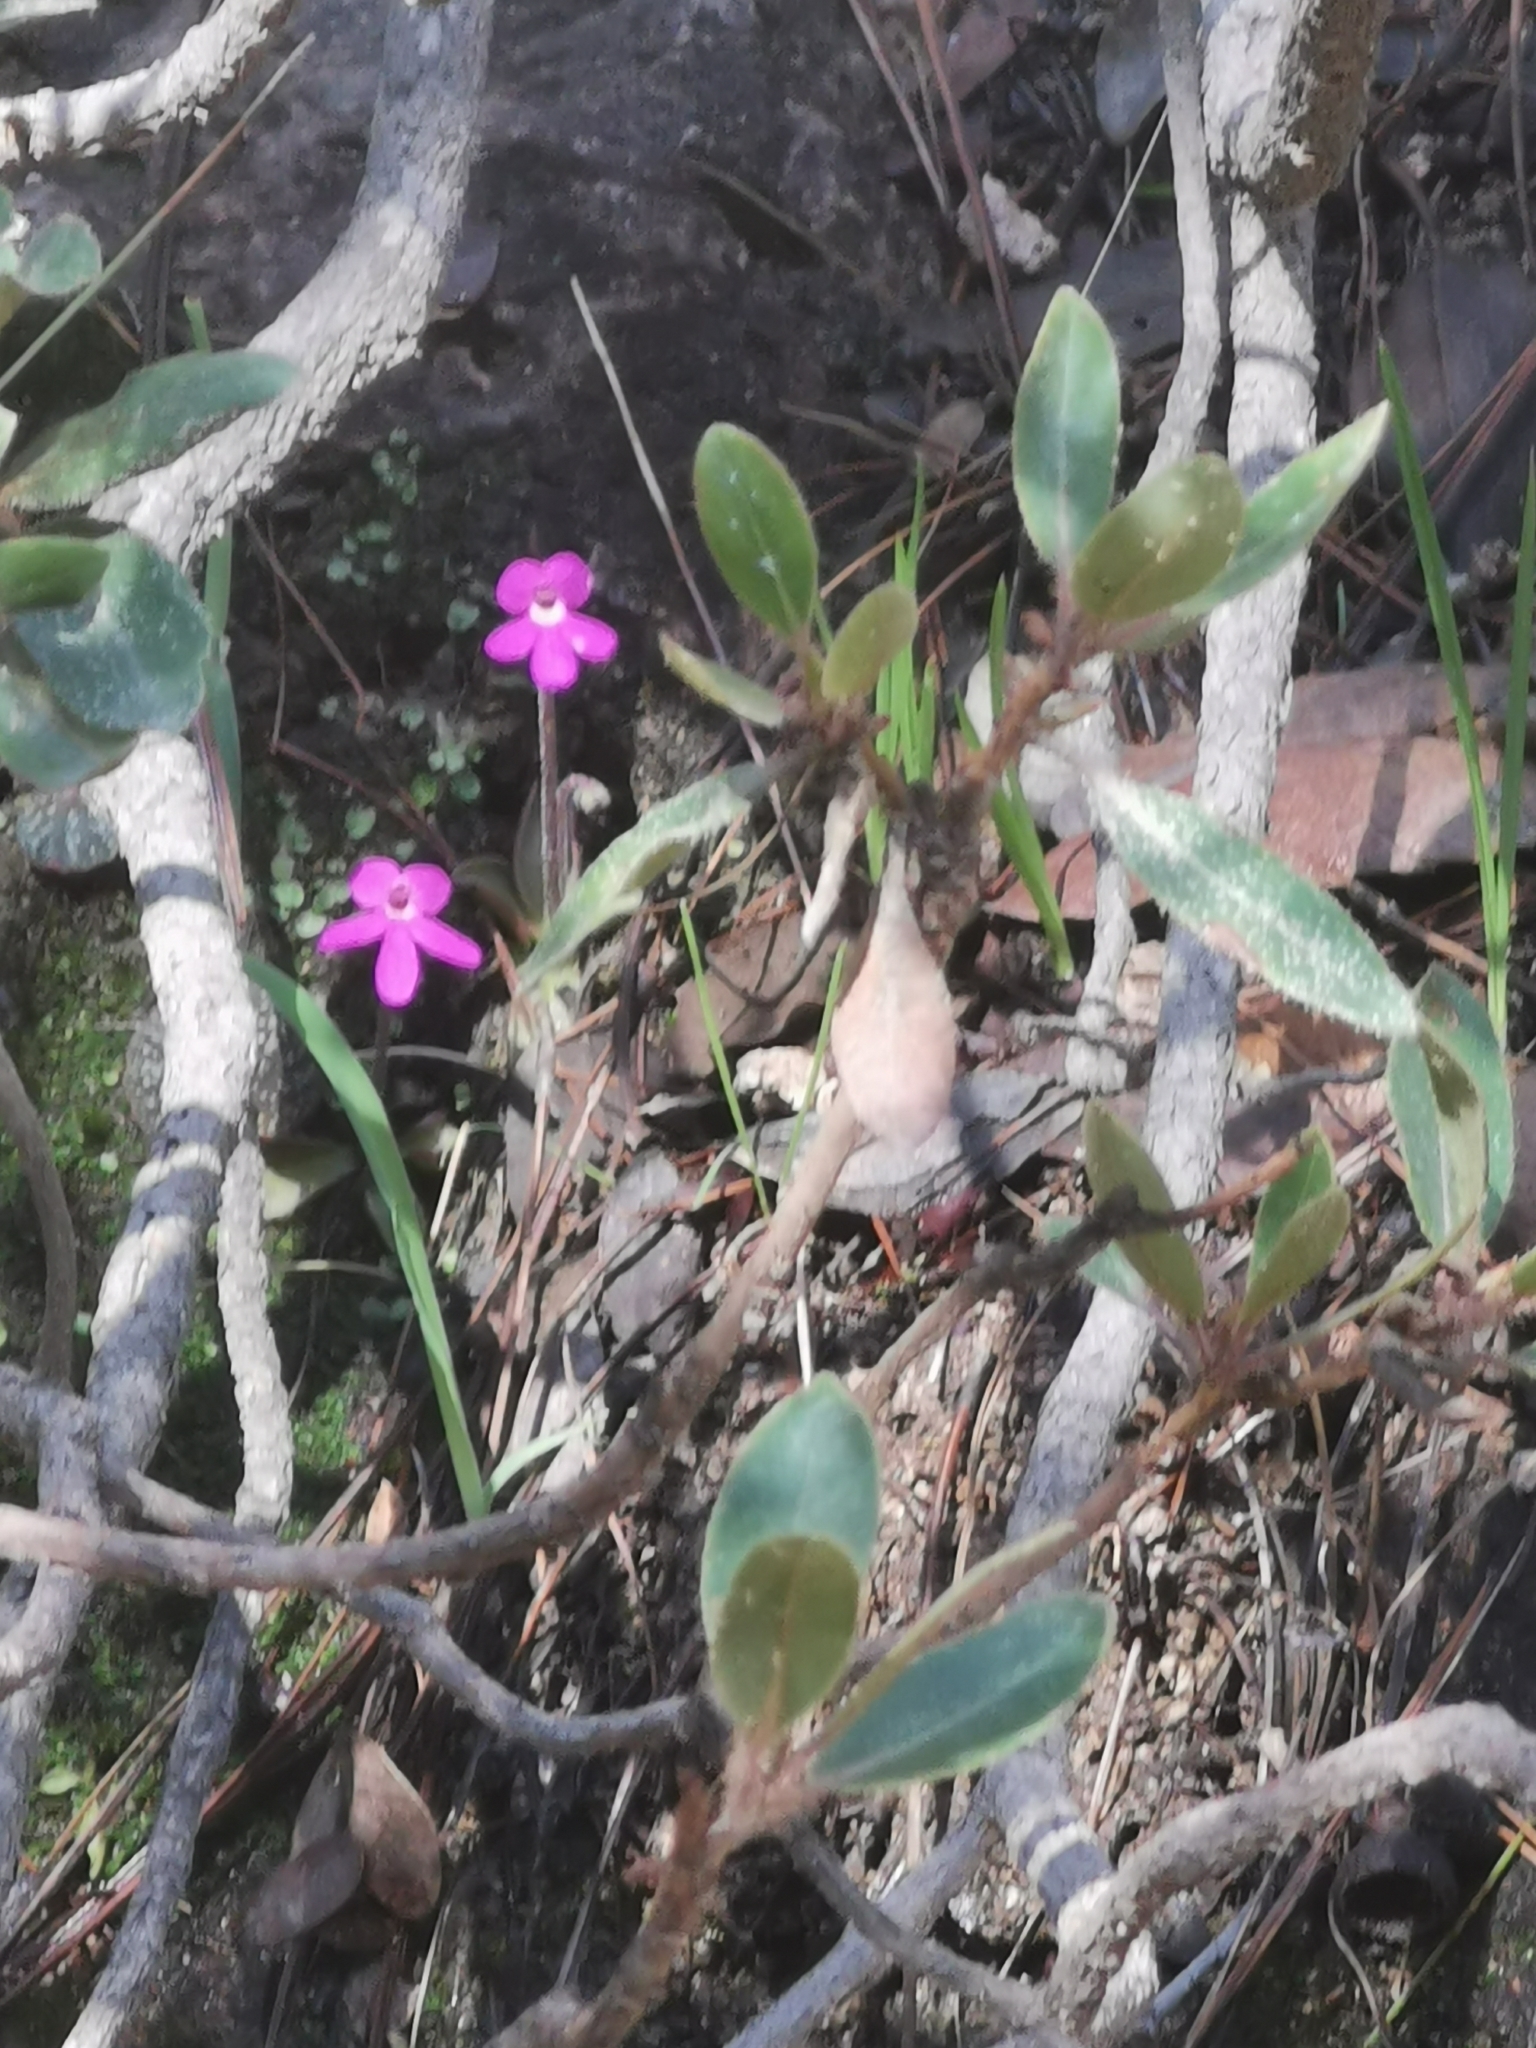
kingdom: Plantae
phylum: Tracheophyta
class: Magnoliopsida
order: Lamiales
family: Lentibulariaceae
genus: Pinguicula
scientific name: Pinguicula oblongiloba
